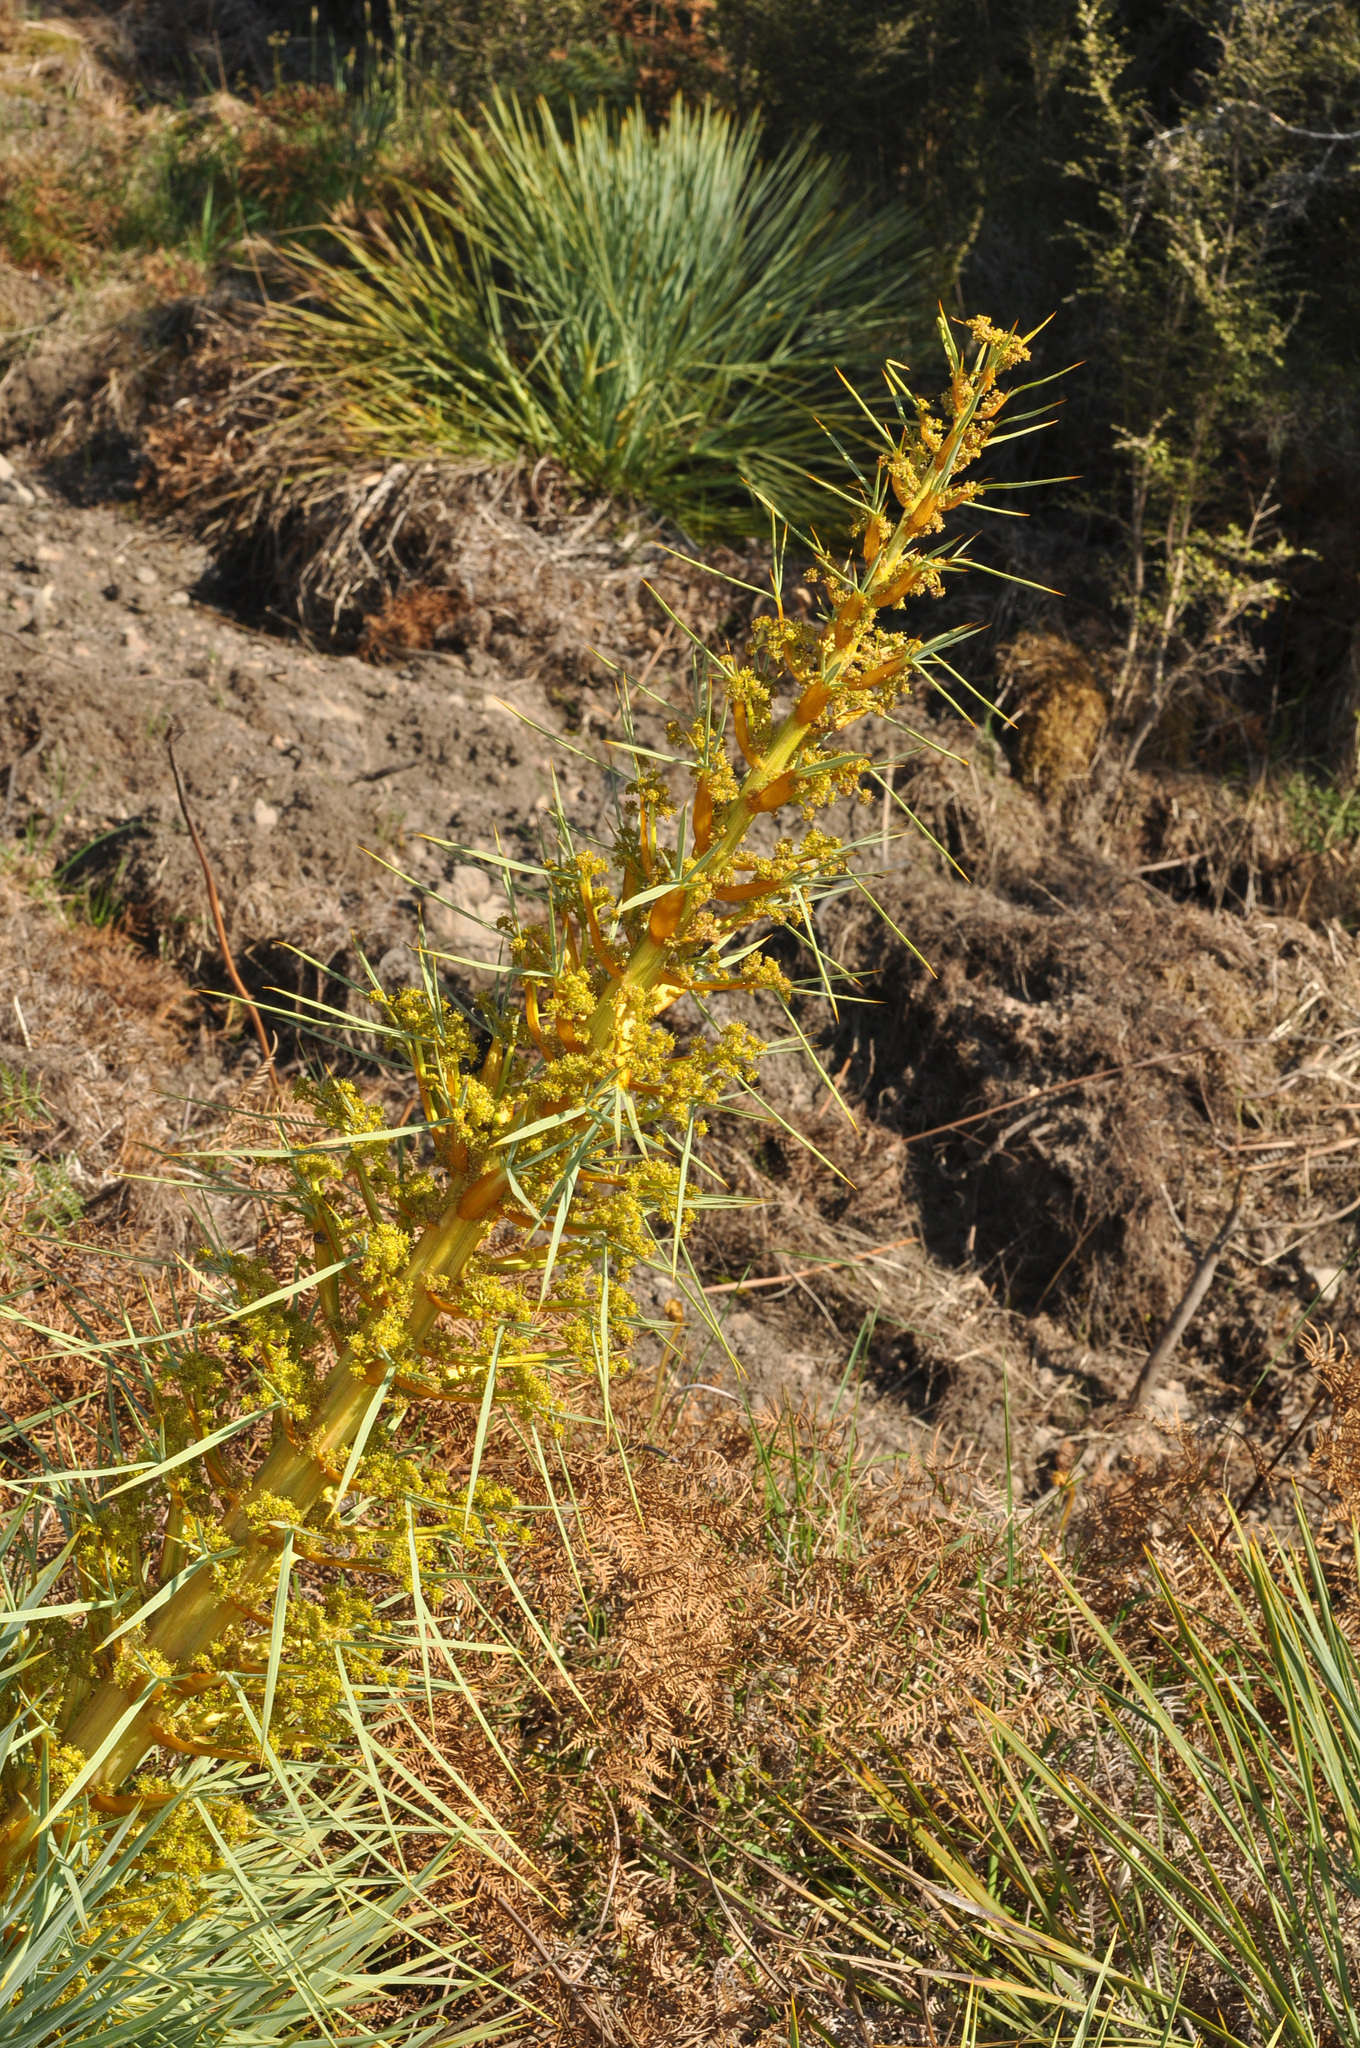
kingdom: Plantae
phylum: Tracheophyta
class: Magnoliopsida
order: Apiales
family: Apiaceae
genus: Aciphylla
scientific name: Aciphylla glaucescens
